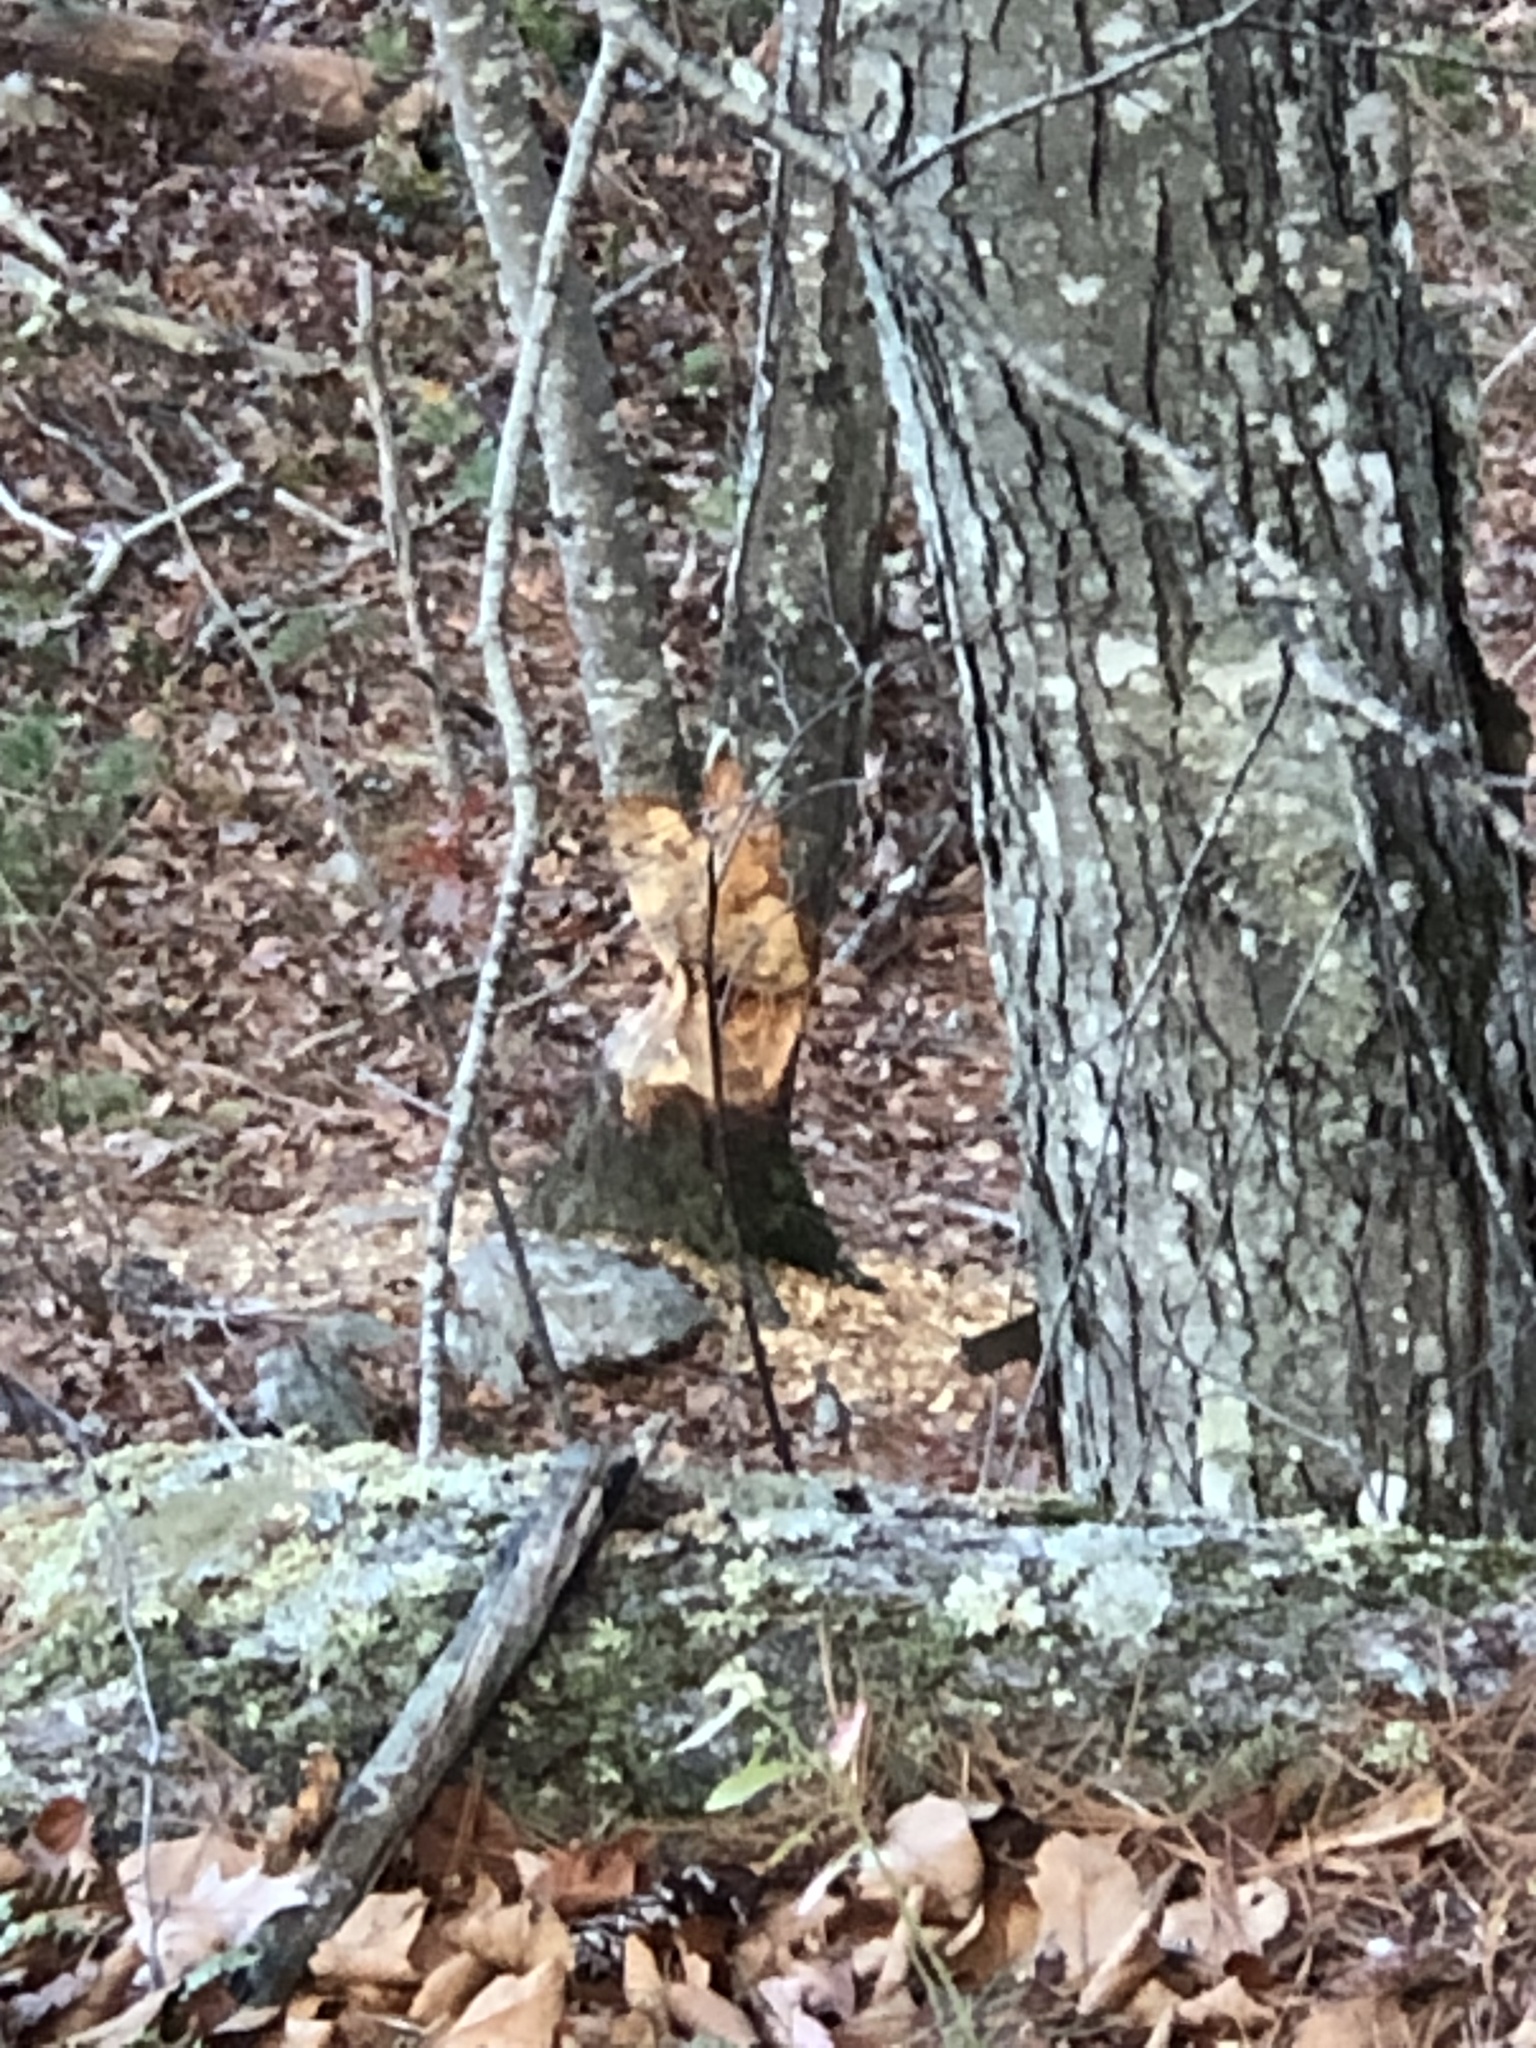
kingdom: Animalia
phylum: Chordata
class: Mammalia
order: Rodentia
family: Castoridae
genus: Castor
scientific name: Castor canadensis
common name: American beaver
